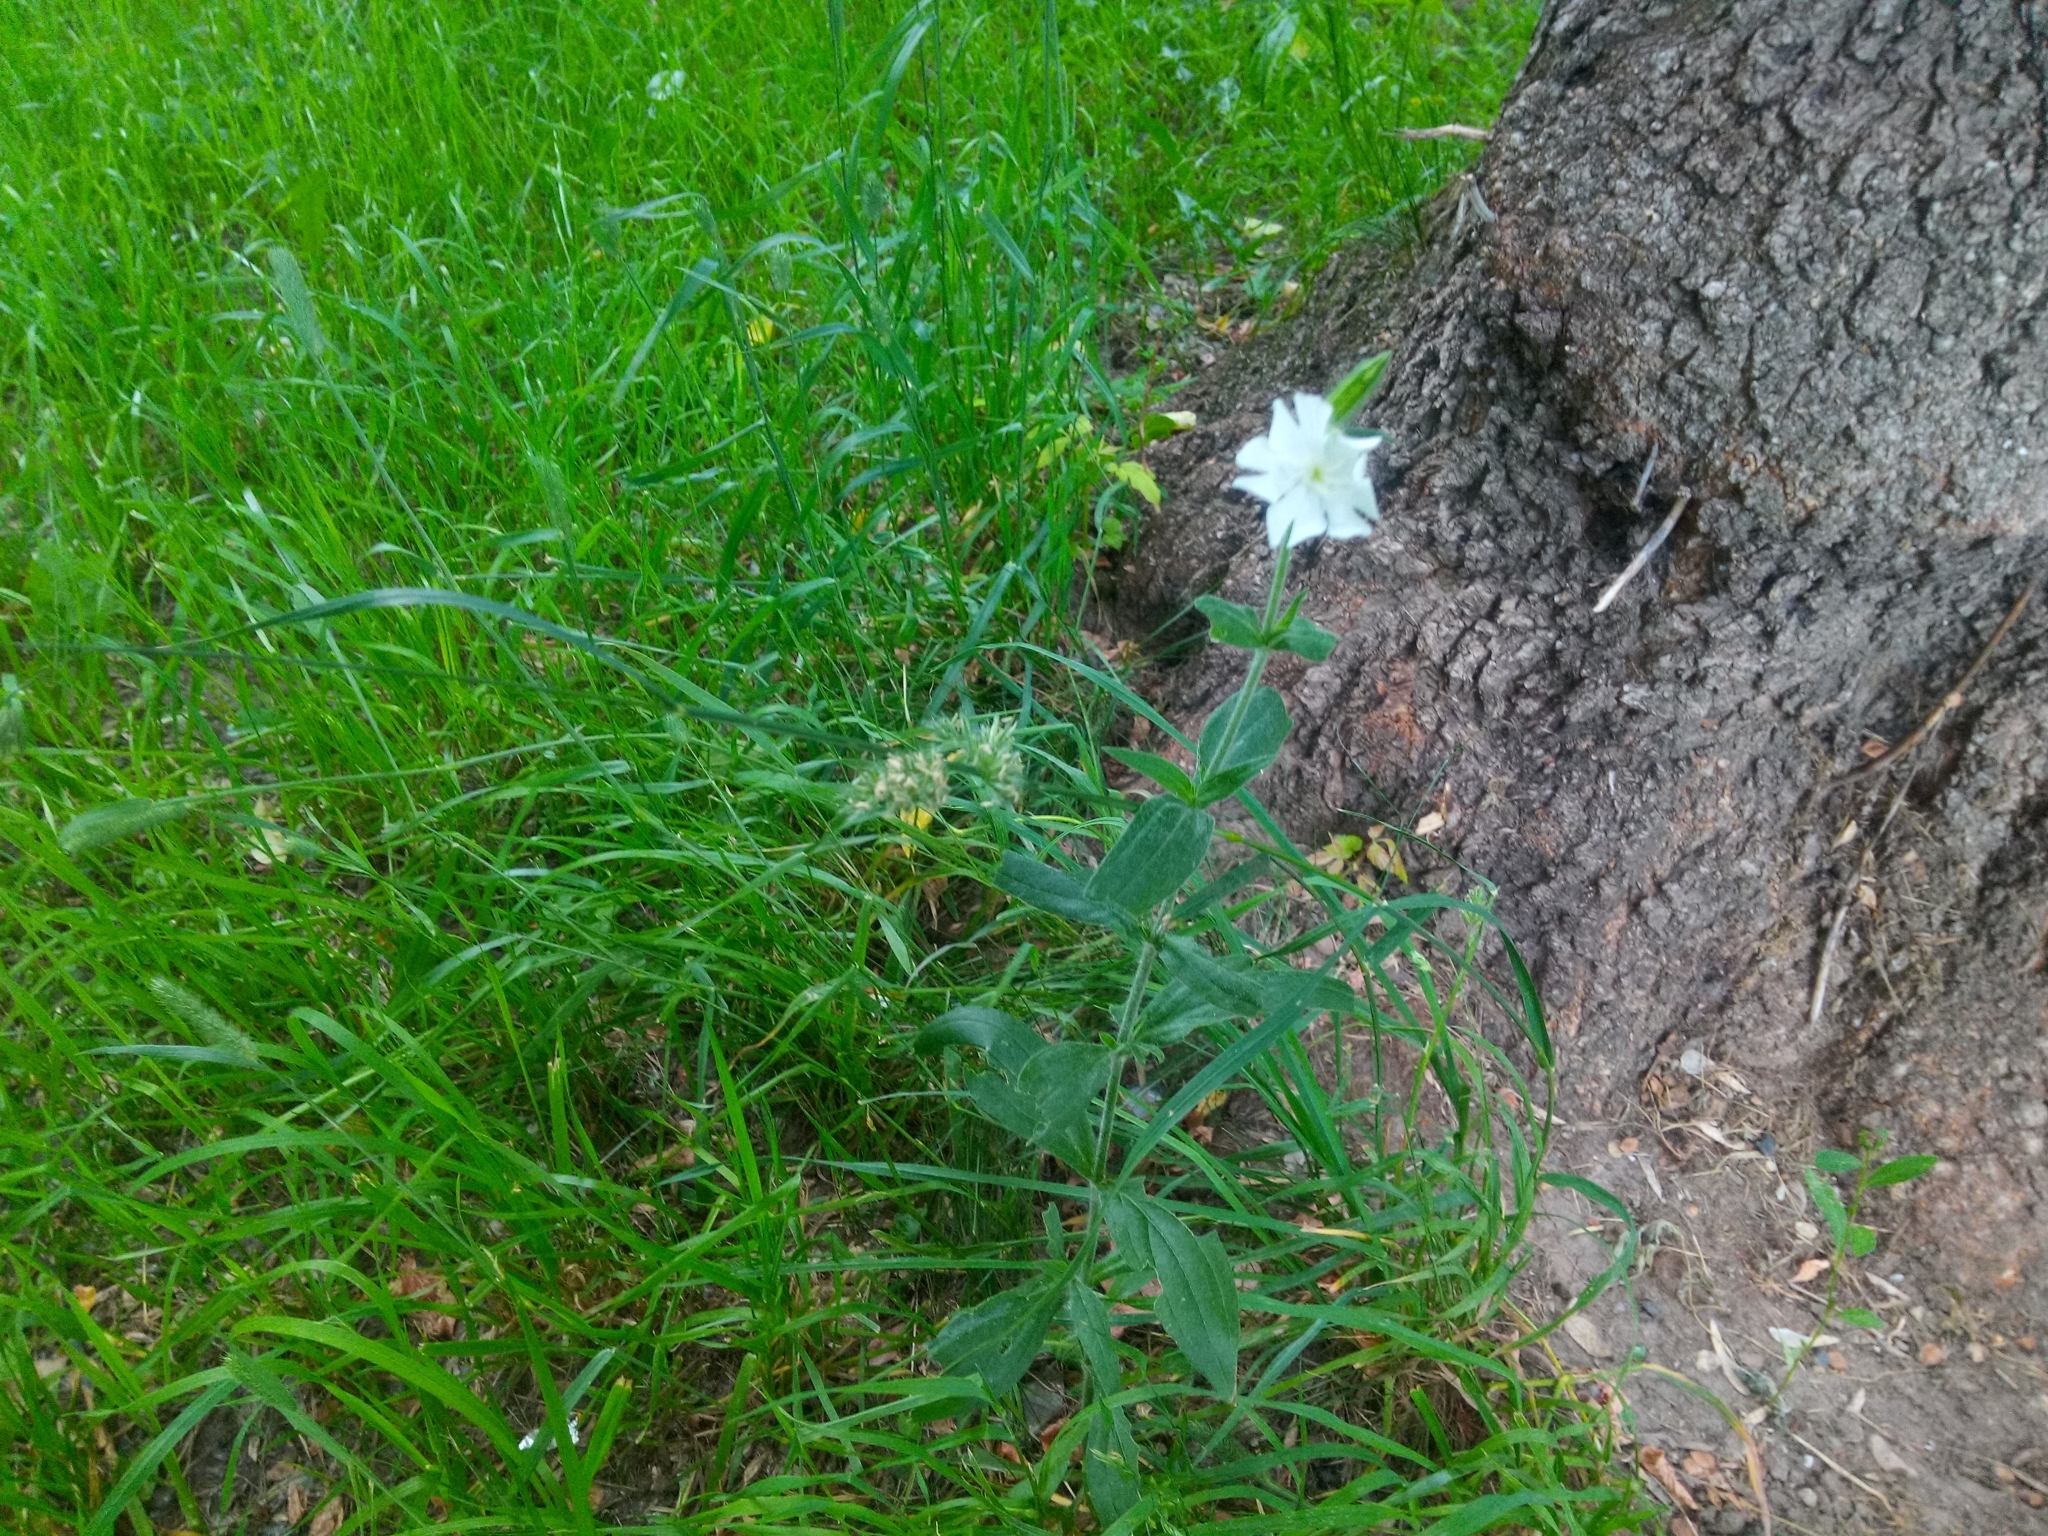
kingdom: Plantae
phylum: Tracheophyta
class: Magnoliopsida
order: Caryophyllales
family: Caryophyllaceae
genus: Silene
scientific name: Silene latifolia
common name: White campion
